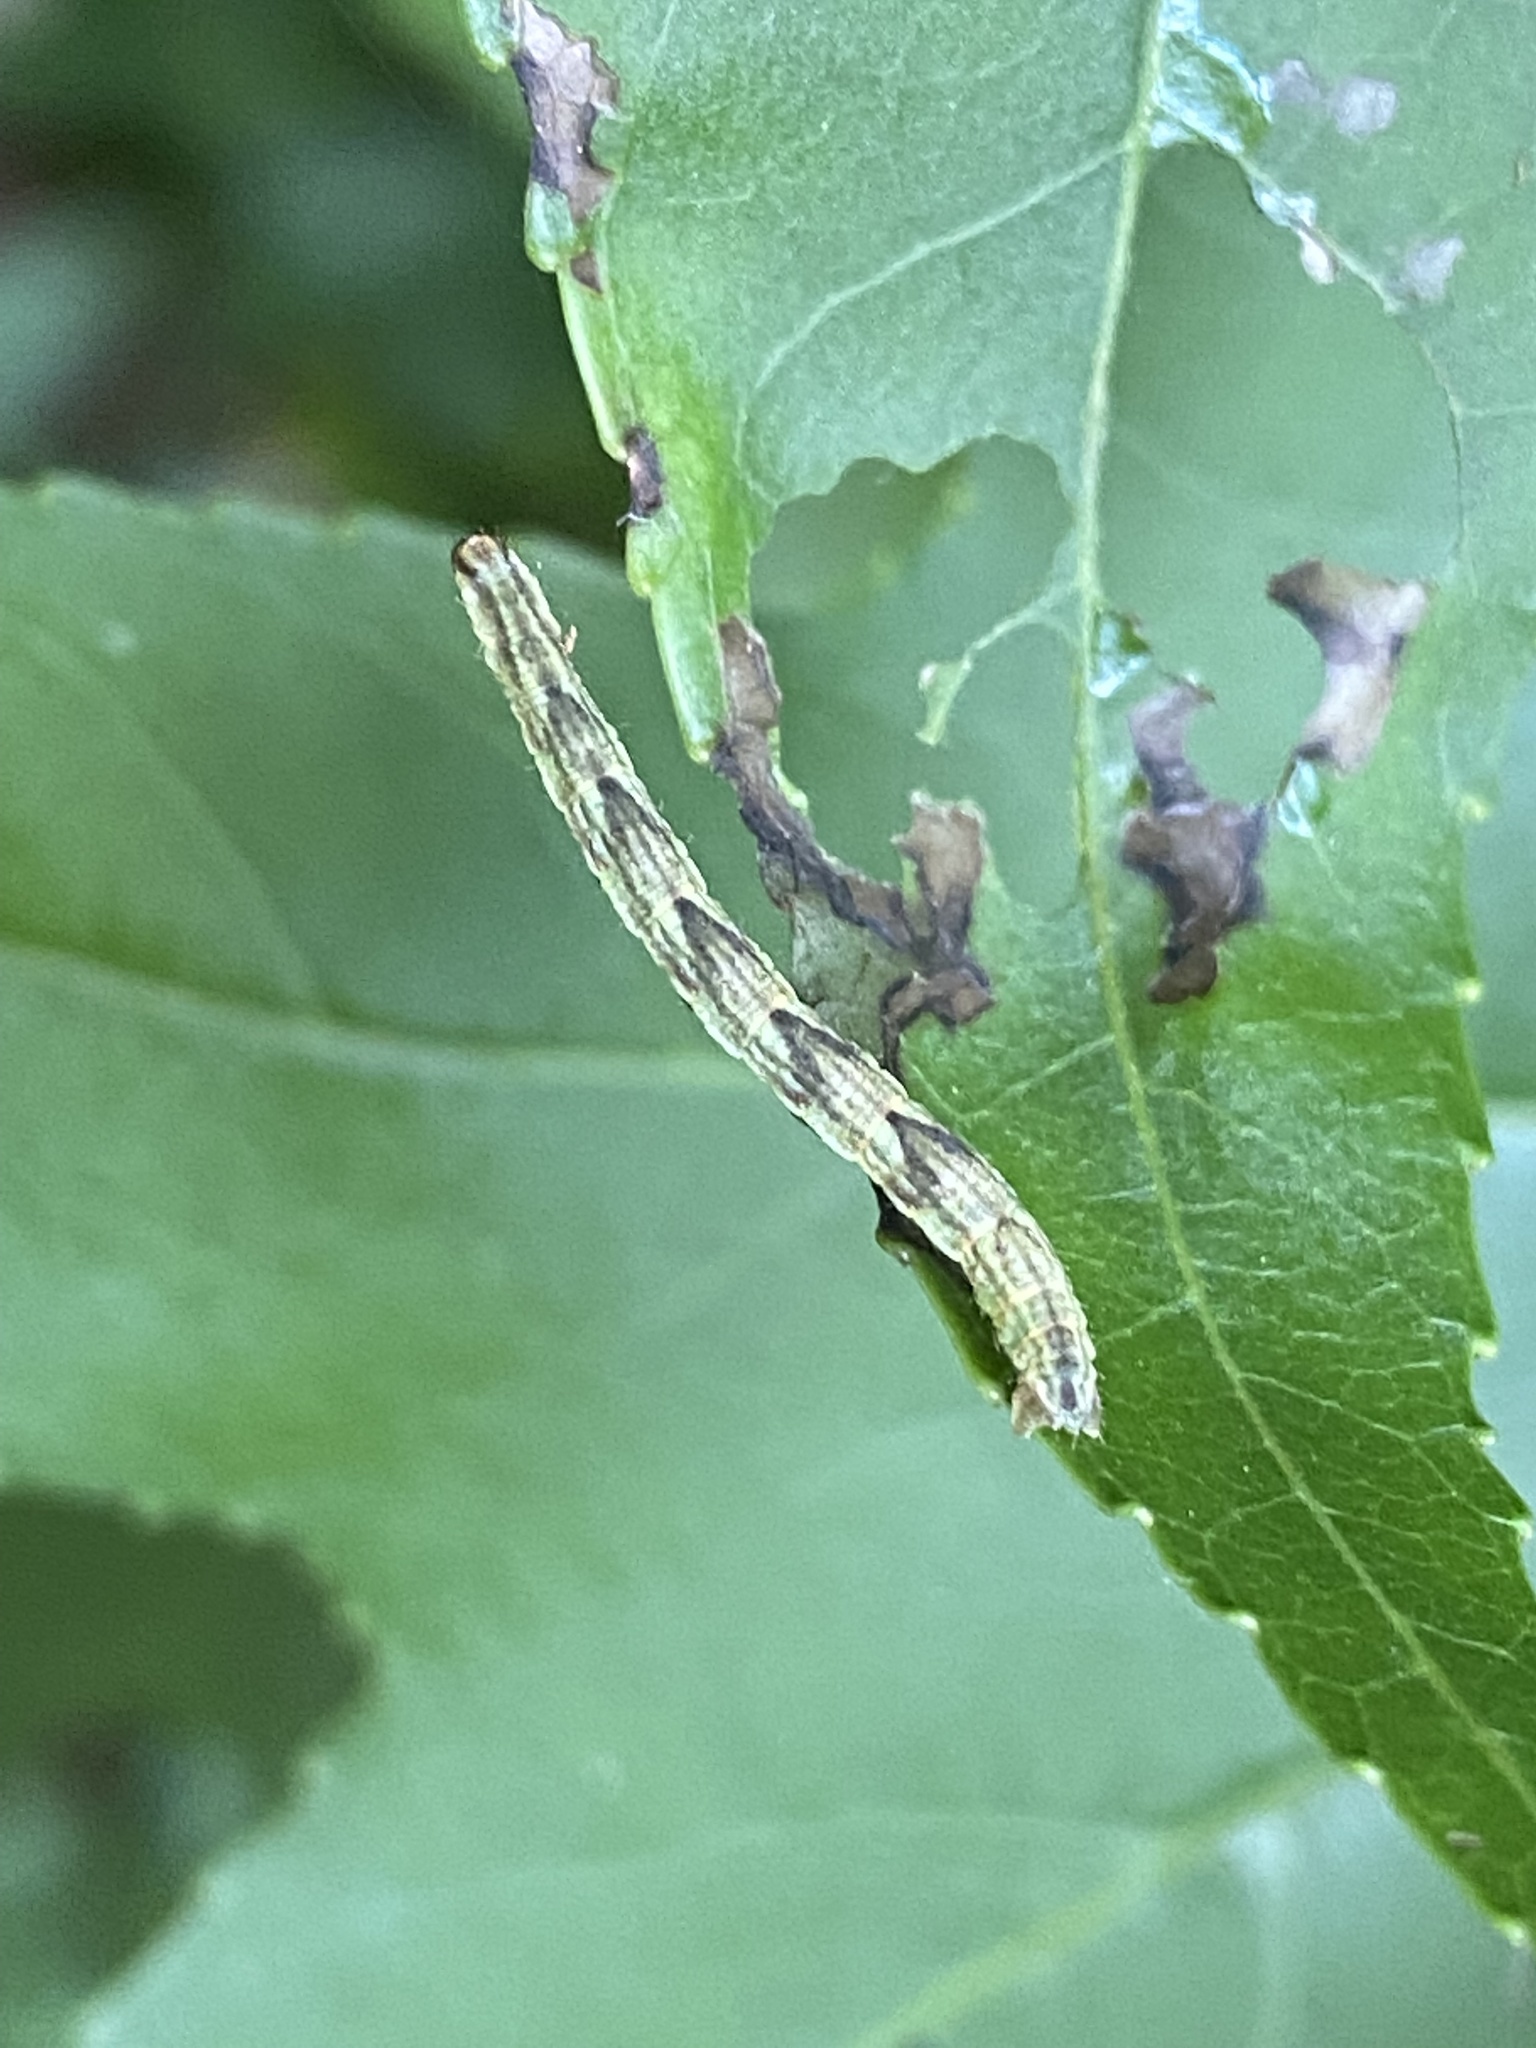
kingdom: Animalia
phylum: Arthropoda
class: Insecta
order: Lepidoptera
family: Geometridae
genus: Eupithecia
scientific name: Eupithecia miserulata
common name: Common eupithecia
